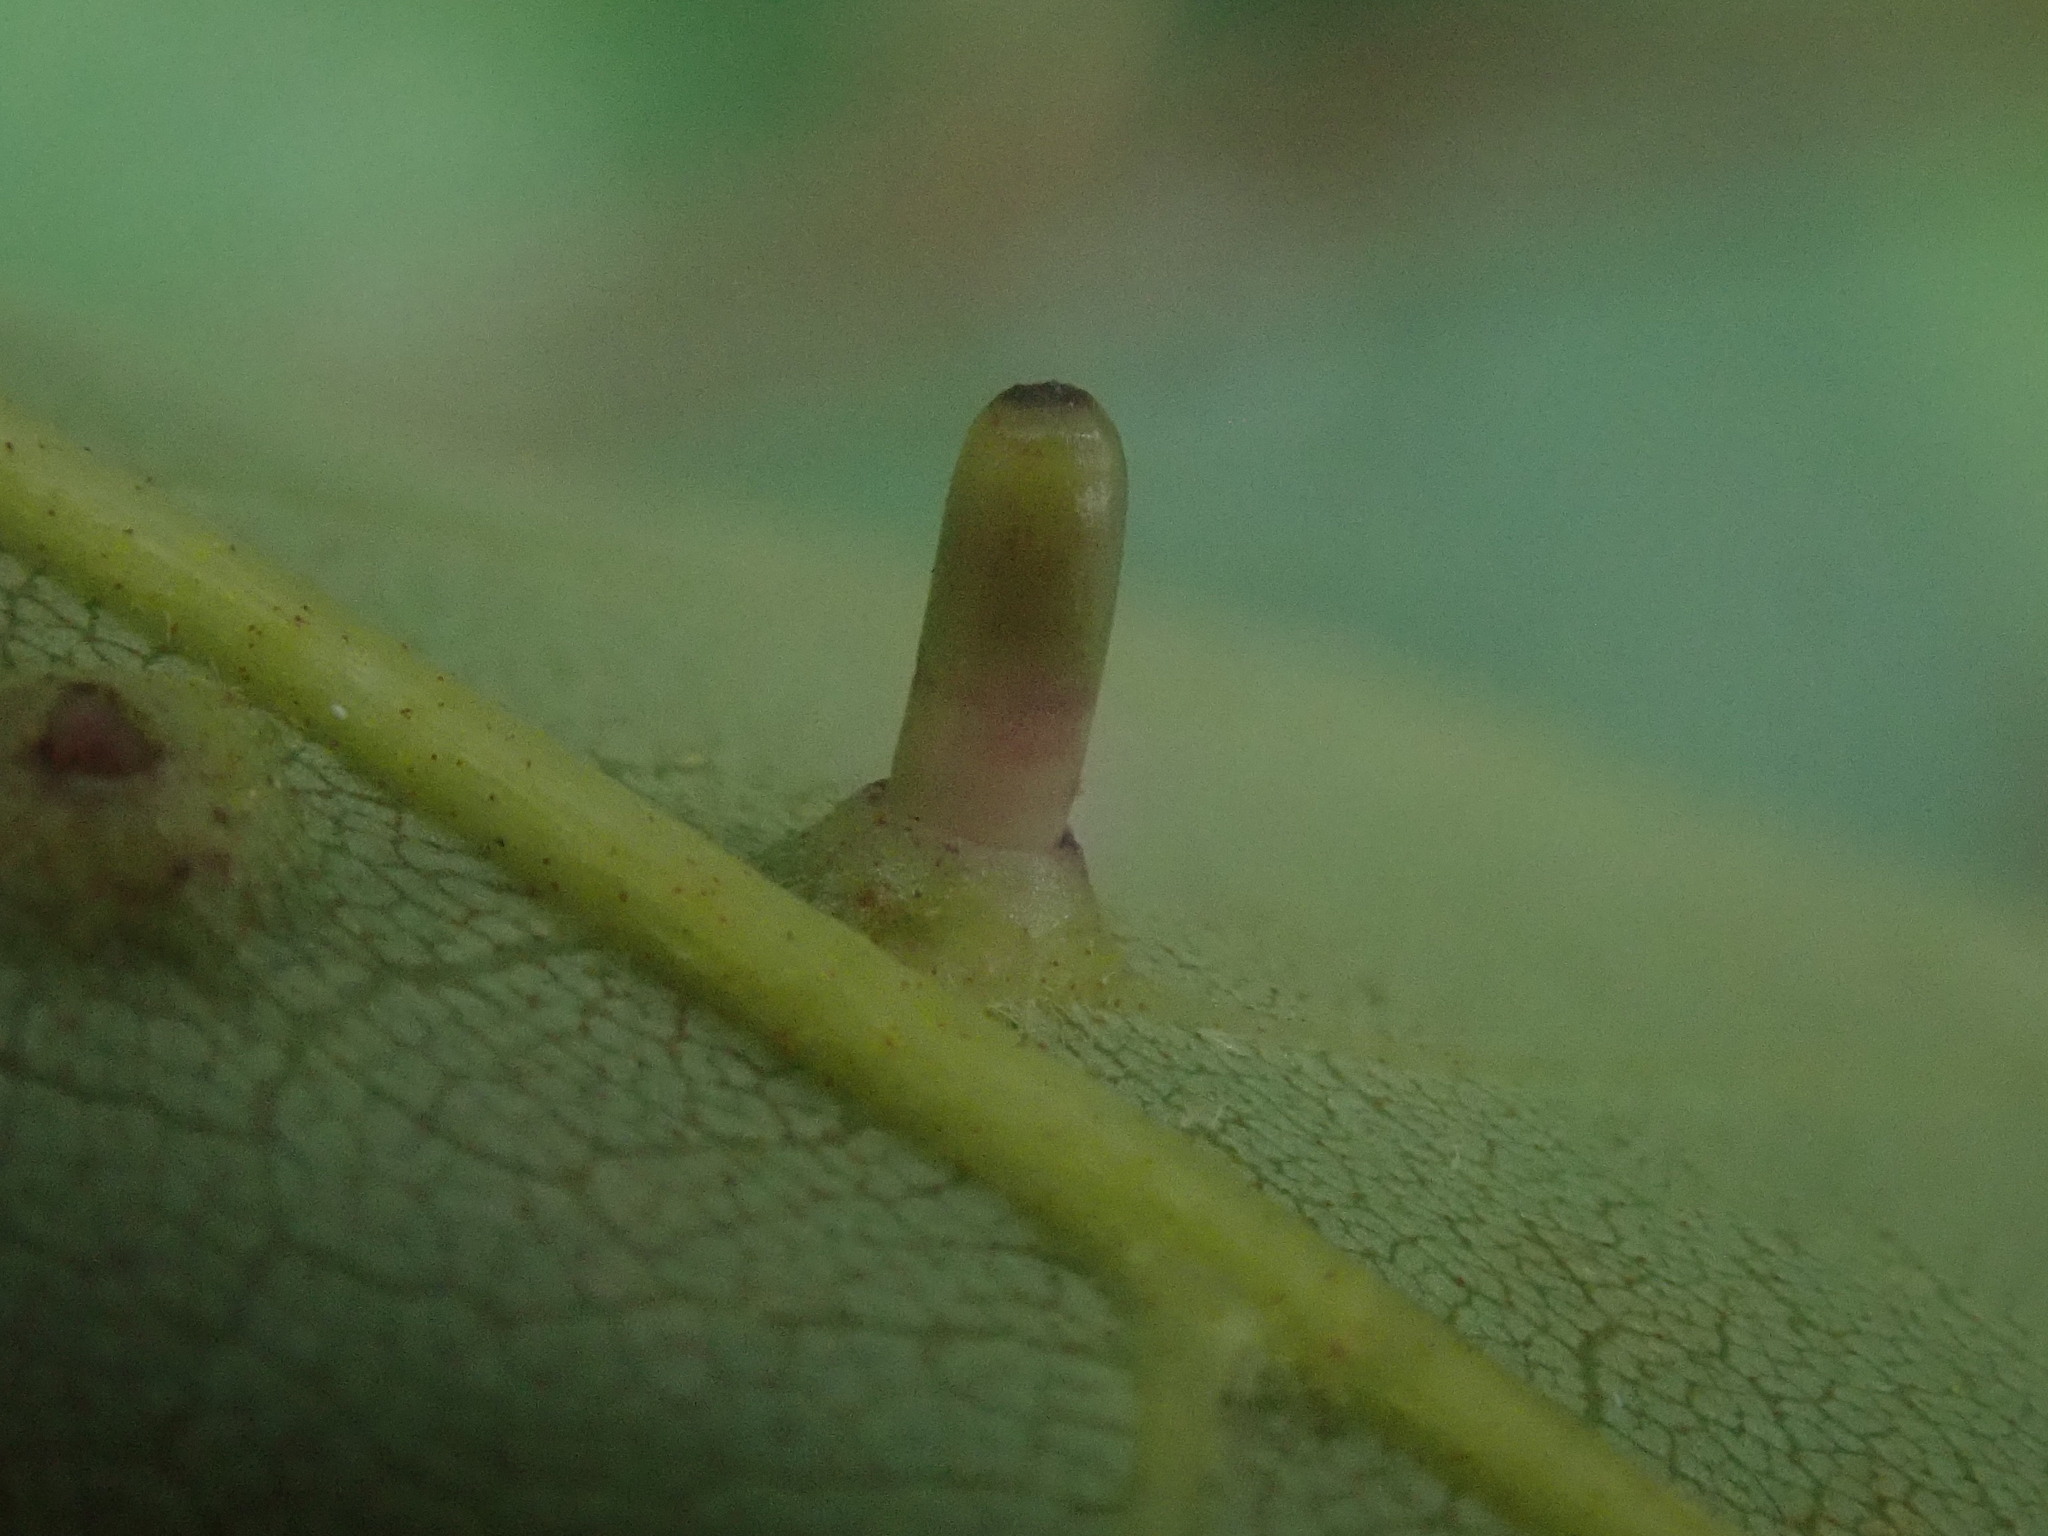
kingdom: Animalia
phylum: Arthropoda
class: Insecta
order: Diptera
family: Cecidomyiidae
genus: Caryomyia
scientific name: Caryomyia tubicola
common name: Hickory bullet gall midge
